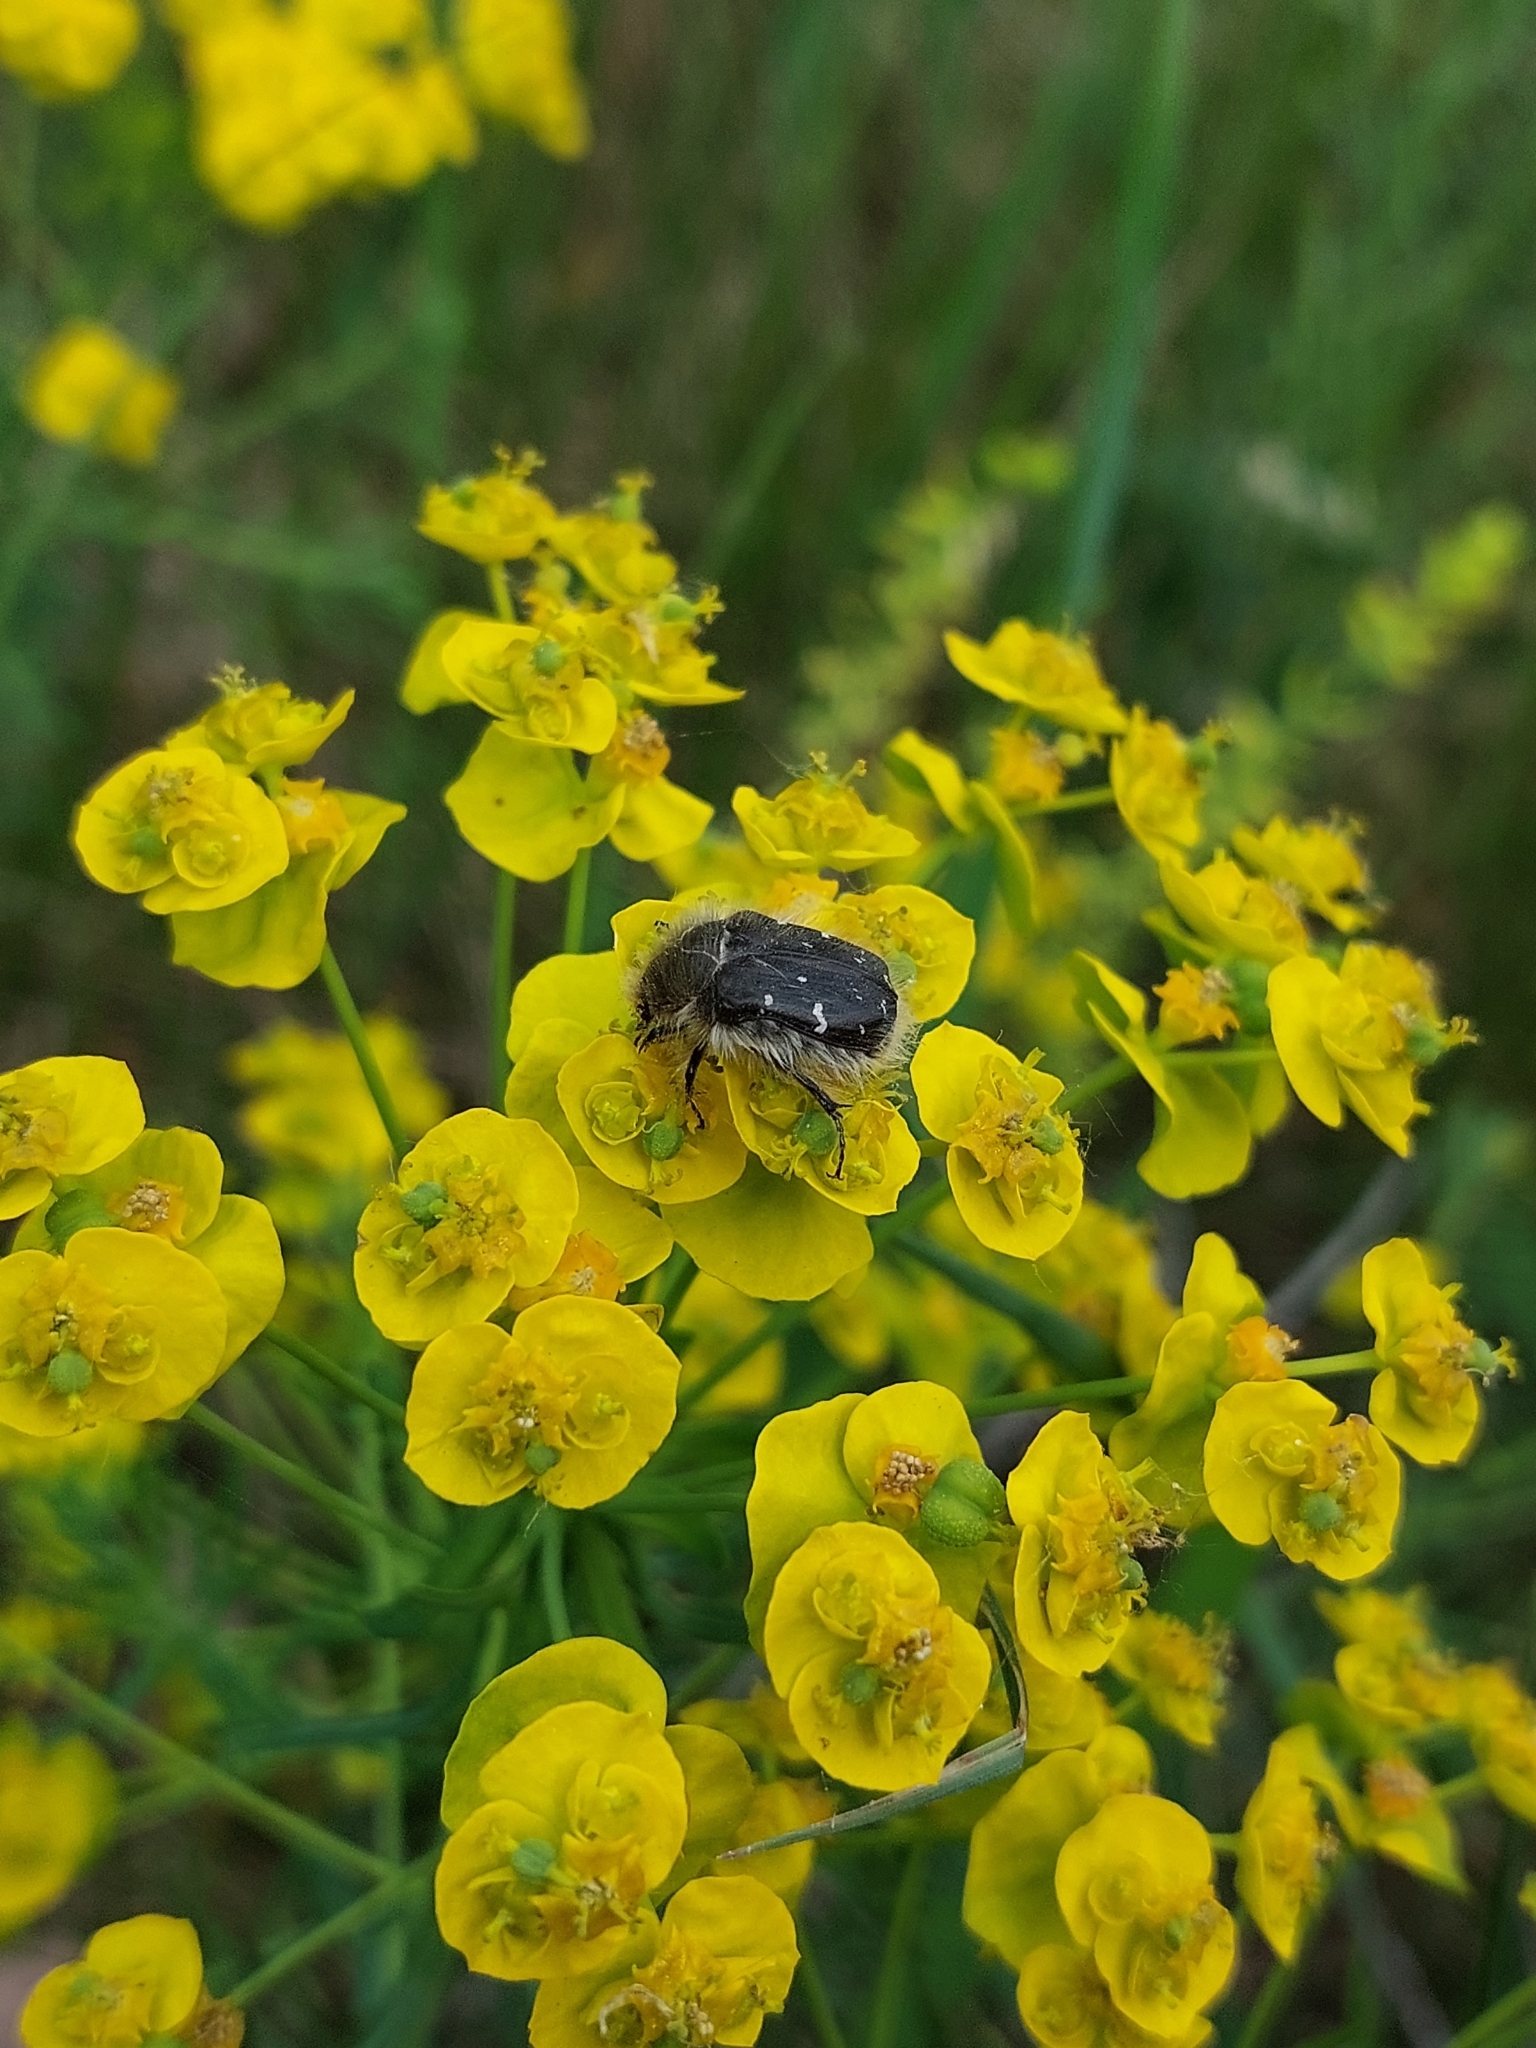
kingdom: Animalia
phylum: Arthropoda
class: Insecta
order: Coleoptera
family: Scarabaeidae
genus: Tropinota
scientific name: Tropinota hirta
